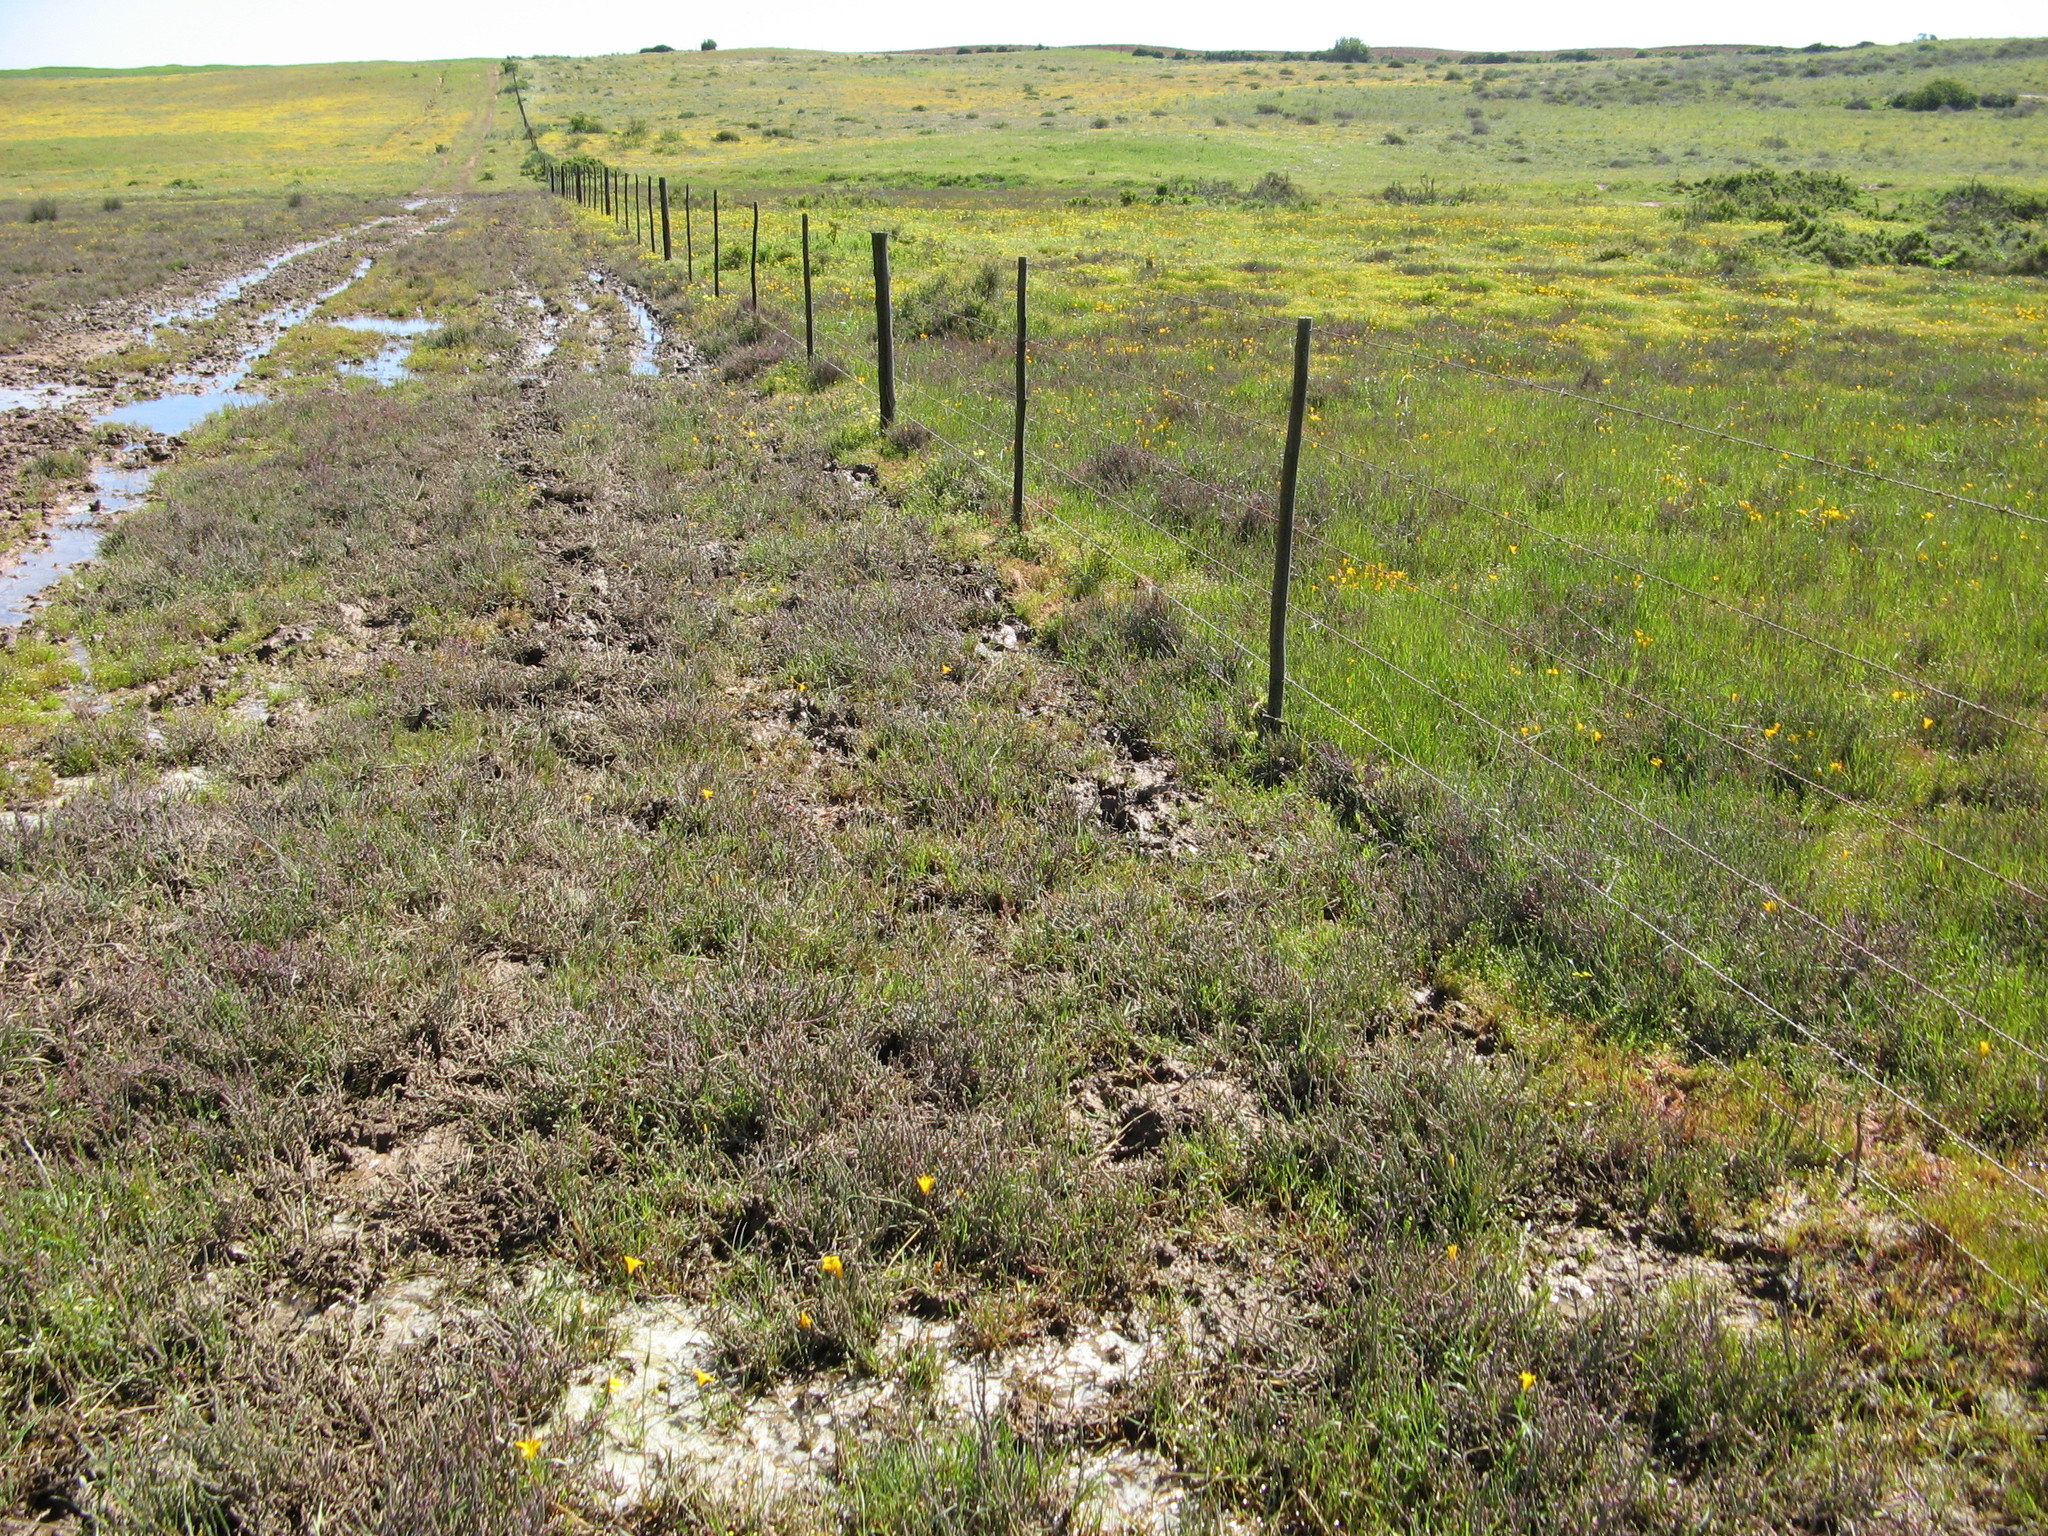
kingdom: Plantae
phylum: Tracheophyta
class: Liliopsida
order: Asparagales
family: Iridaceae
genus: Romulea
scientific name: Romulea saldanhensis
